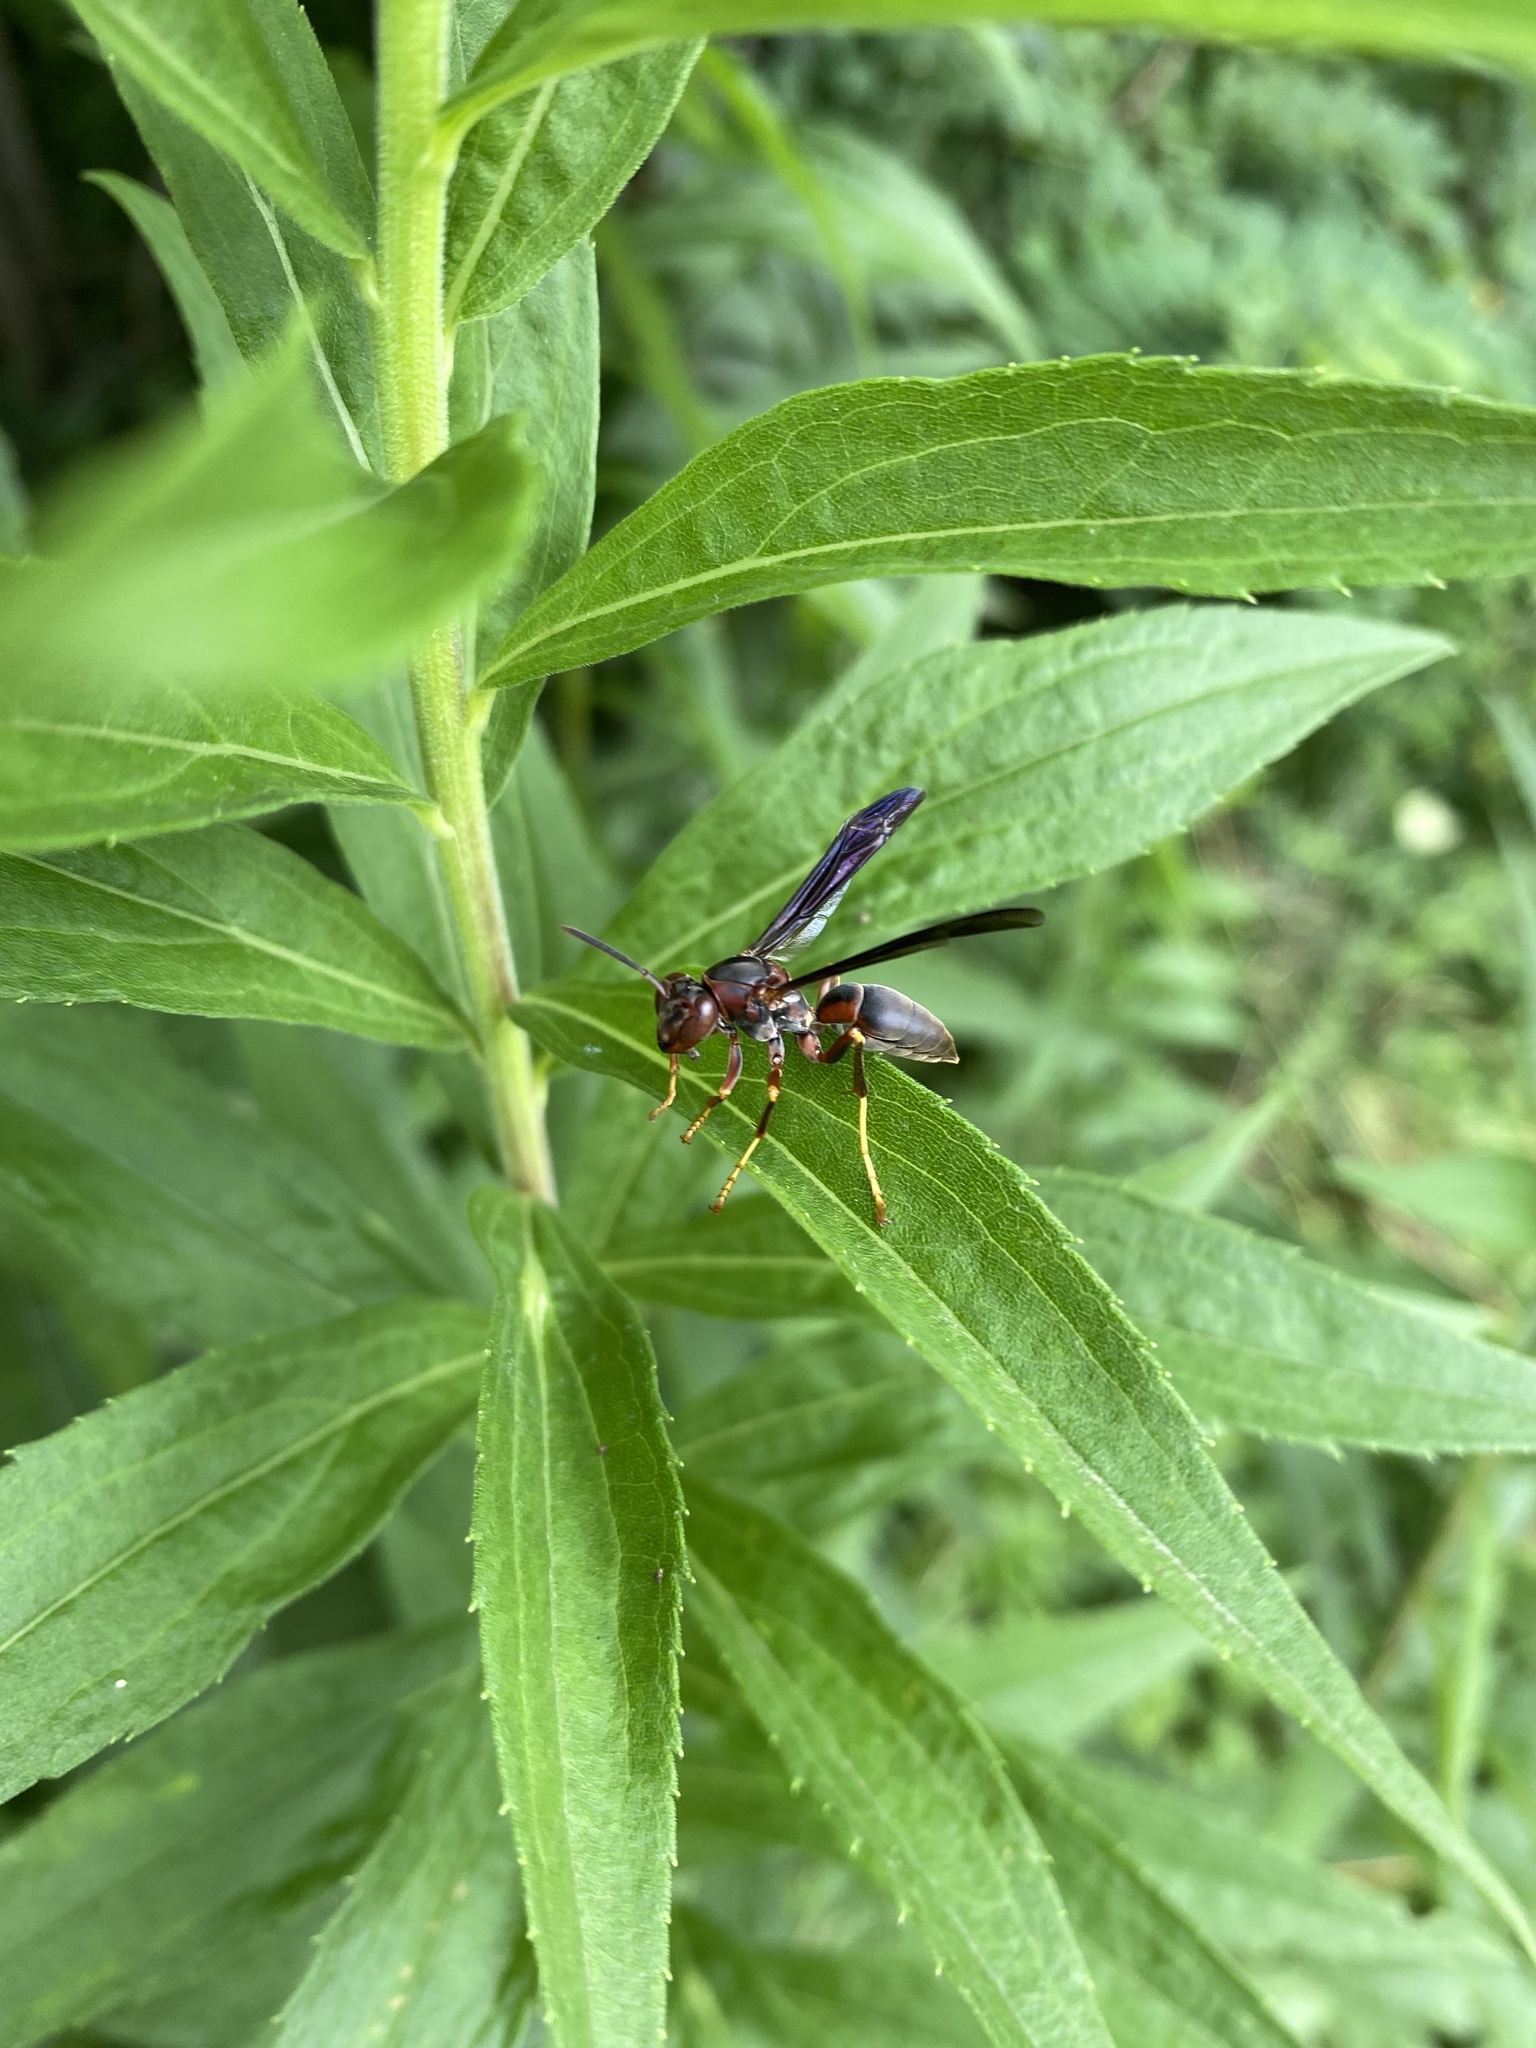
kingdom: Animalia
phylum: Arthropoda
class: Insecta
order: Hymenoptera
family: Eumenidae
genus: Polistes
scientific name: Polistes metricus
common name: Metric paper wasp
